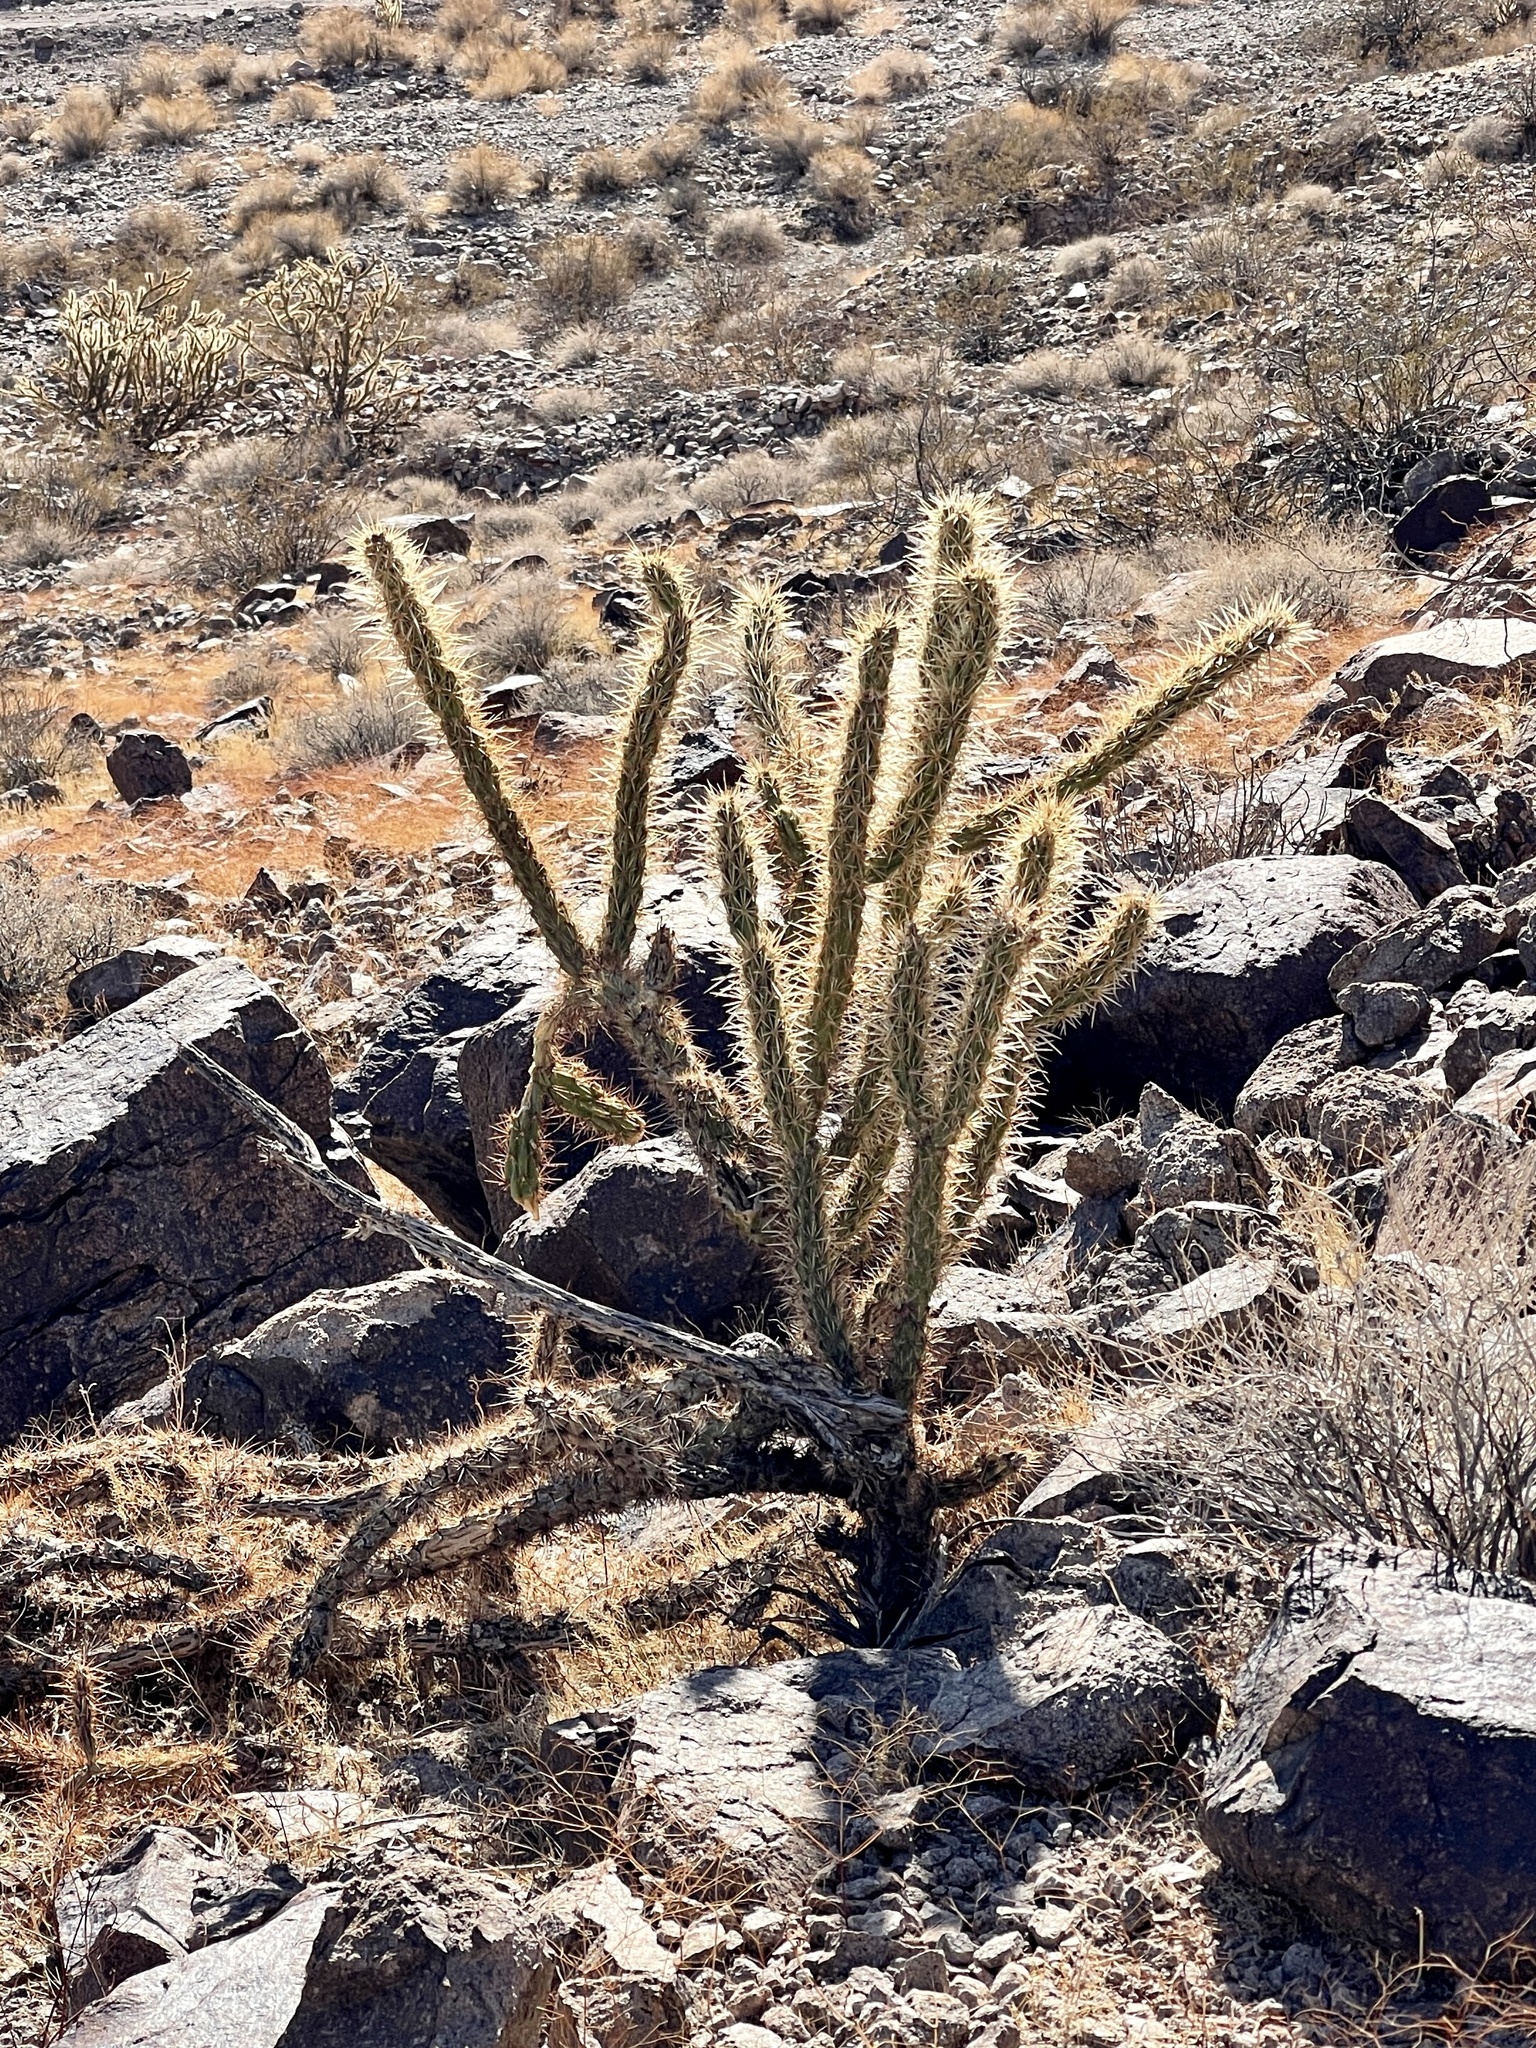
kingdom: Plantae
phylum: Tracheophyta
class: Magnoliopsida
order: Caryophyllales
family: Cactaceae
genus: Cylindropuntia
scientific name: Cylindropuntia acanthocarpa
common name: Buckhorn cholla
